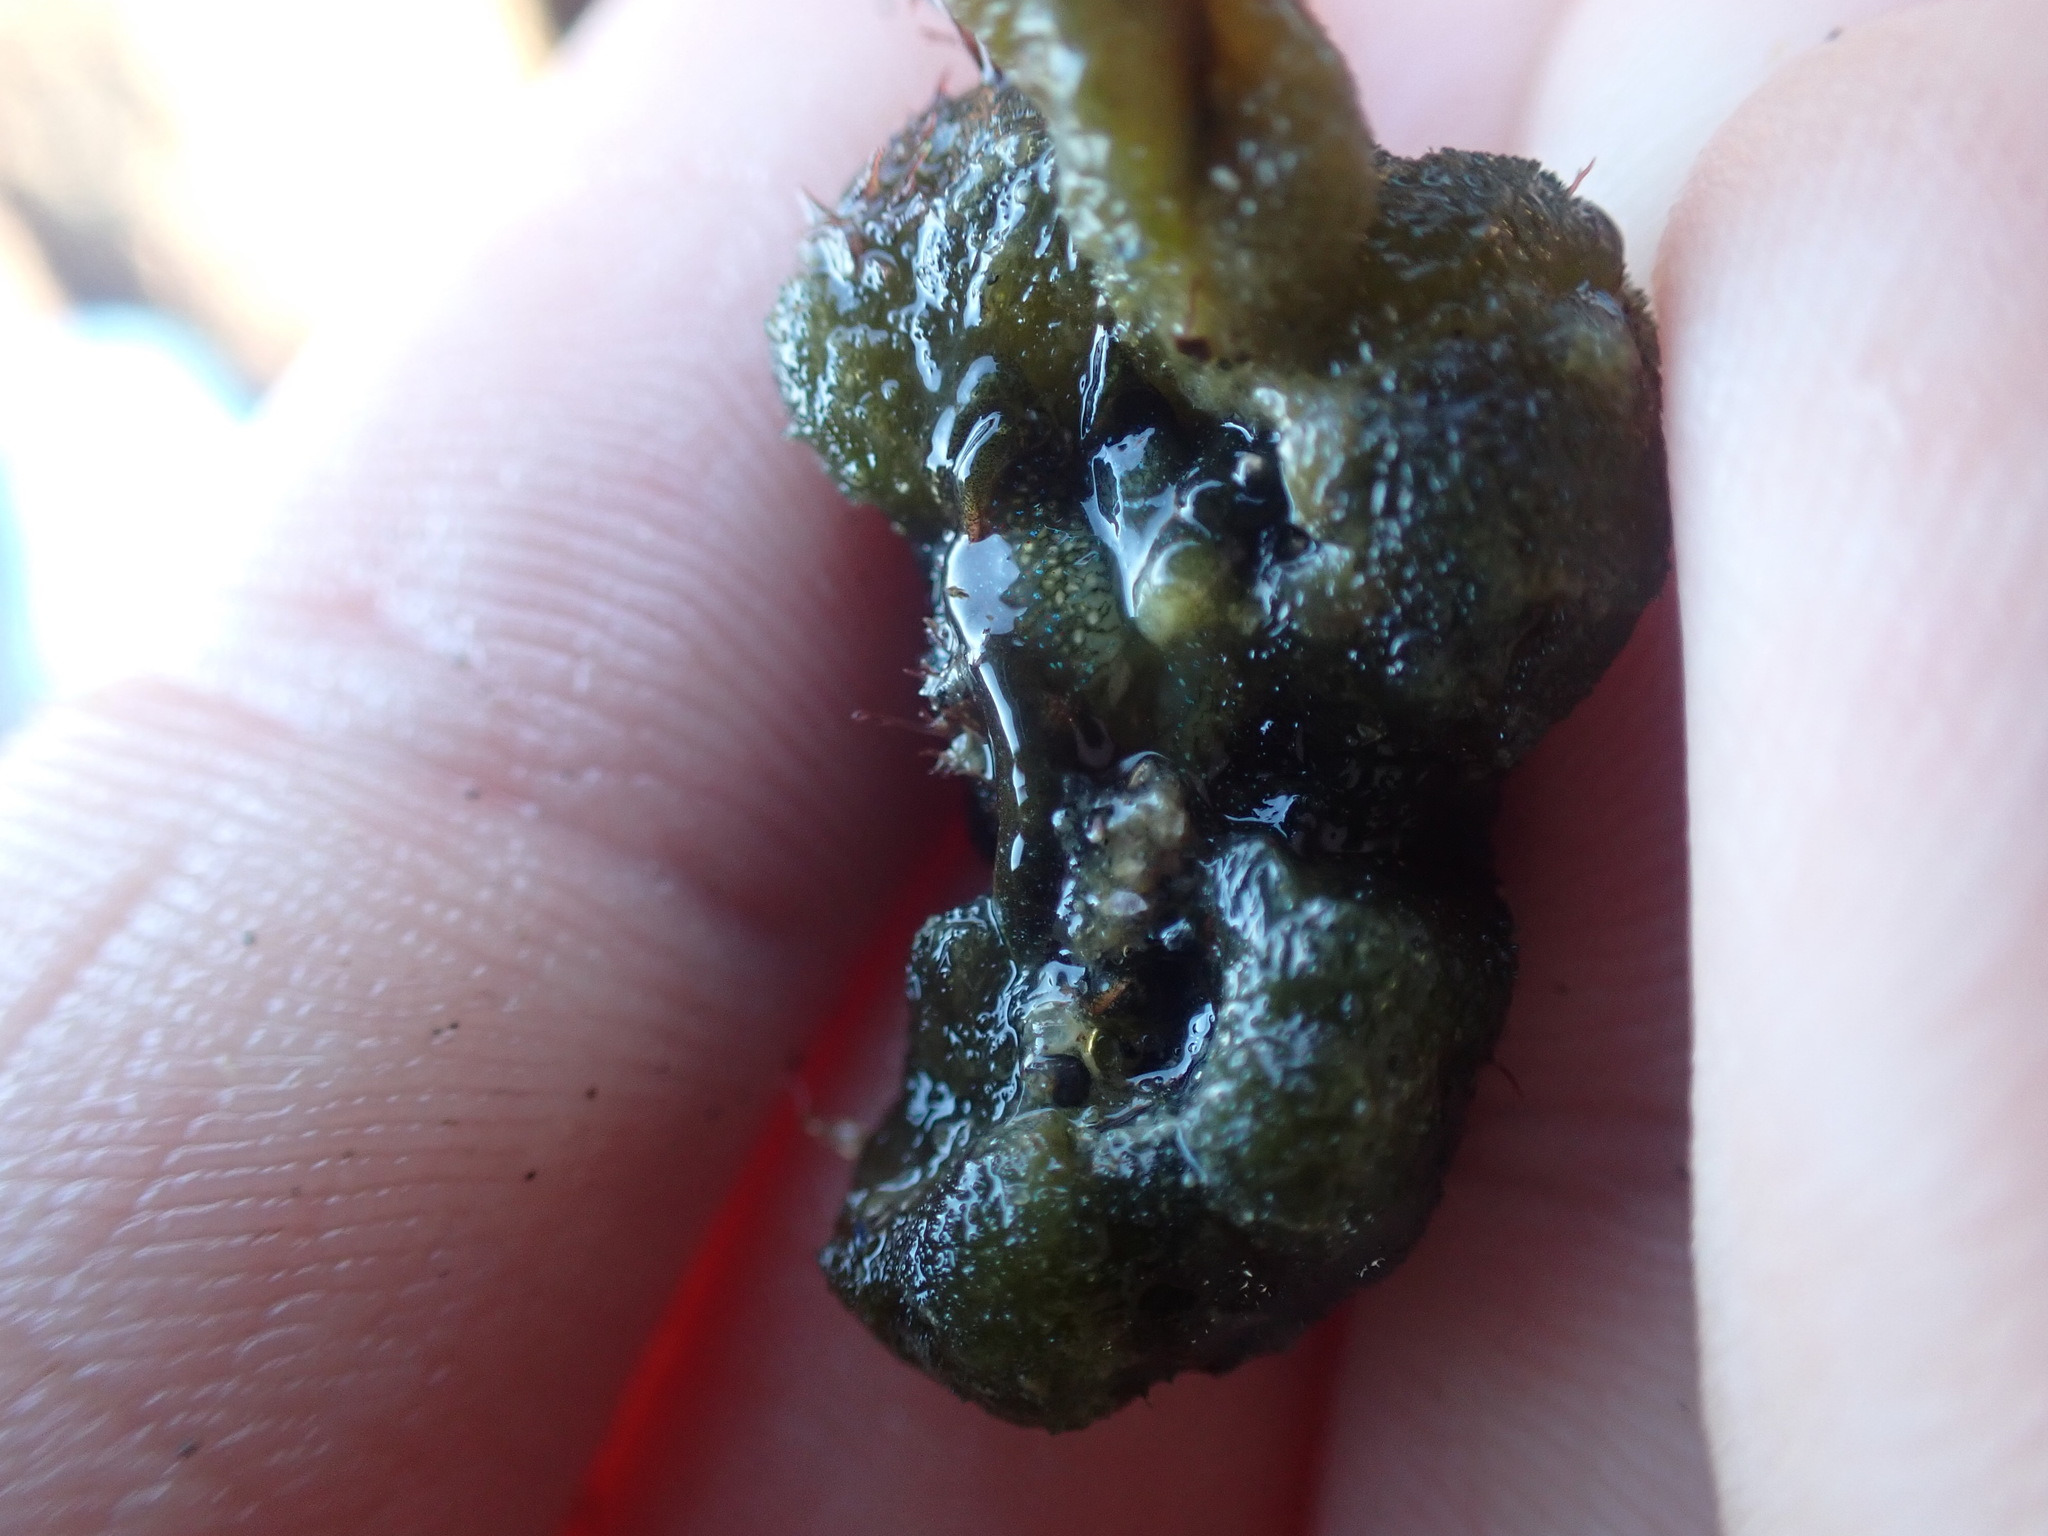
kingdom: Animalia
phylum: Mollusca
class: Gastropoda
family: Plakobranchidae
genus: Elysia
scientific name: Elysia maoria
